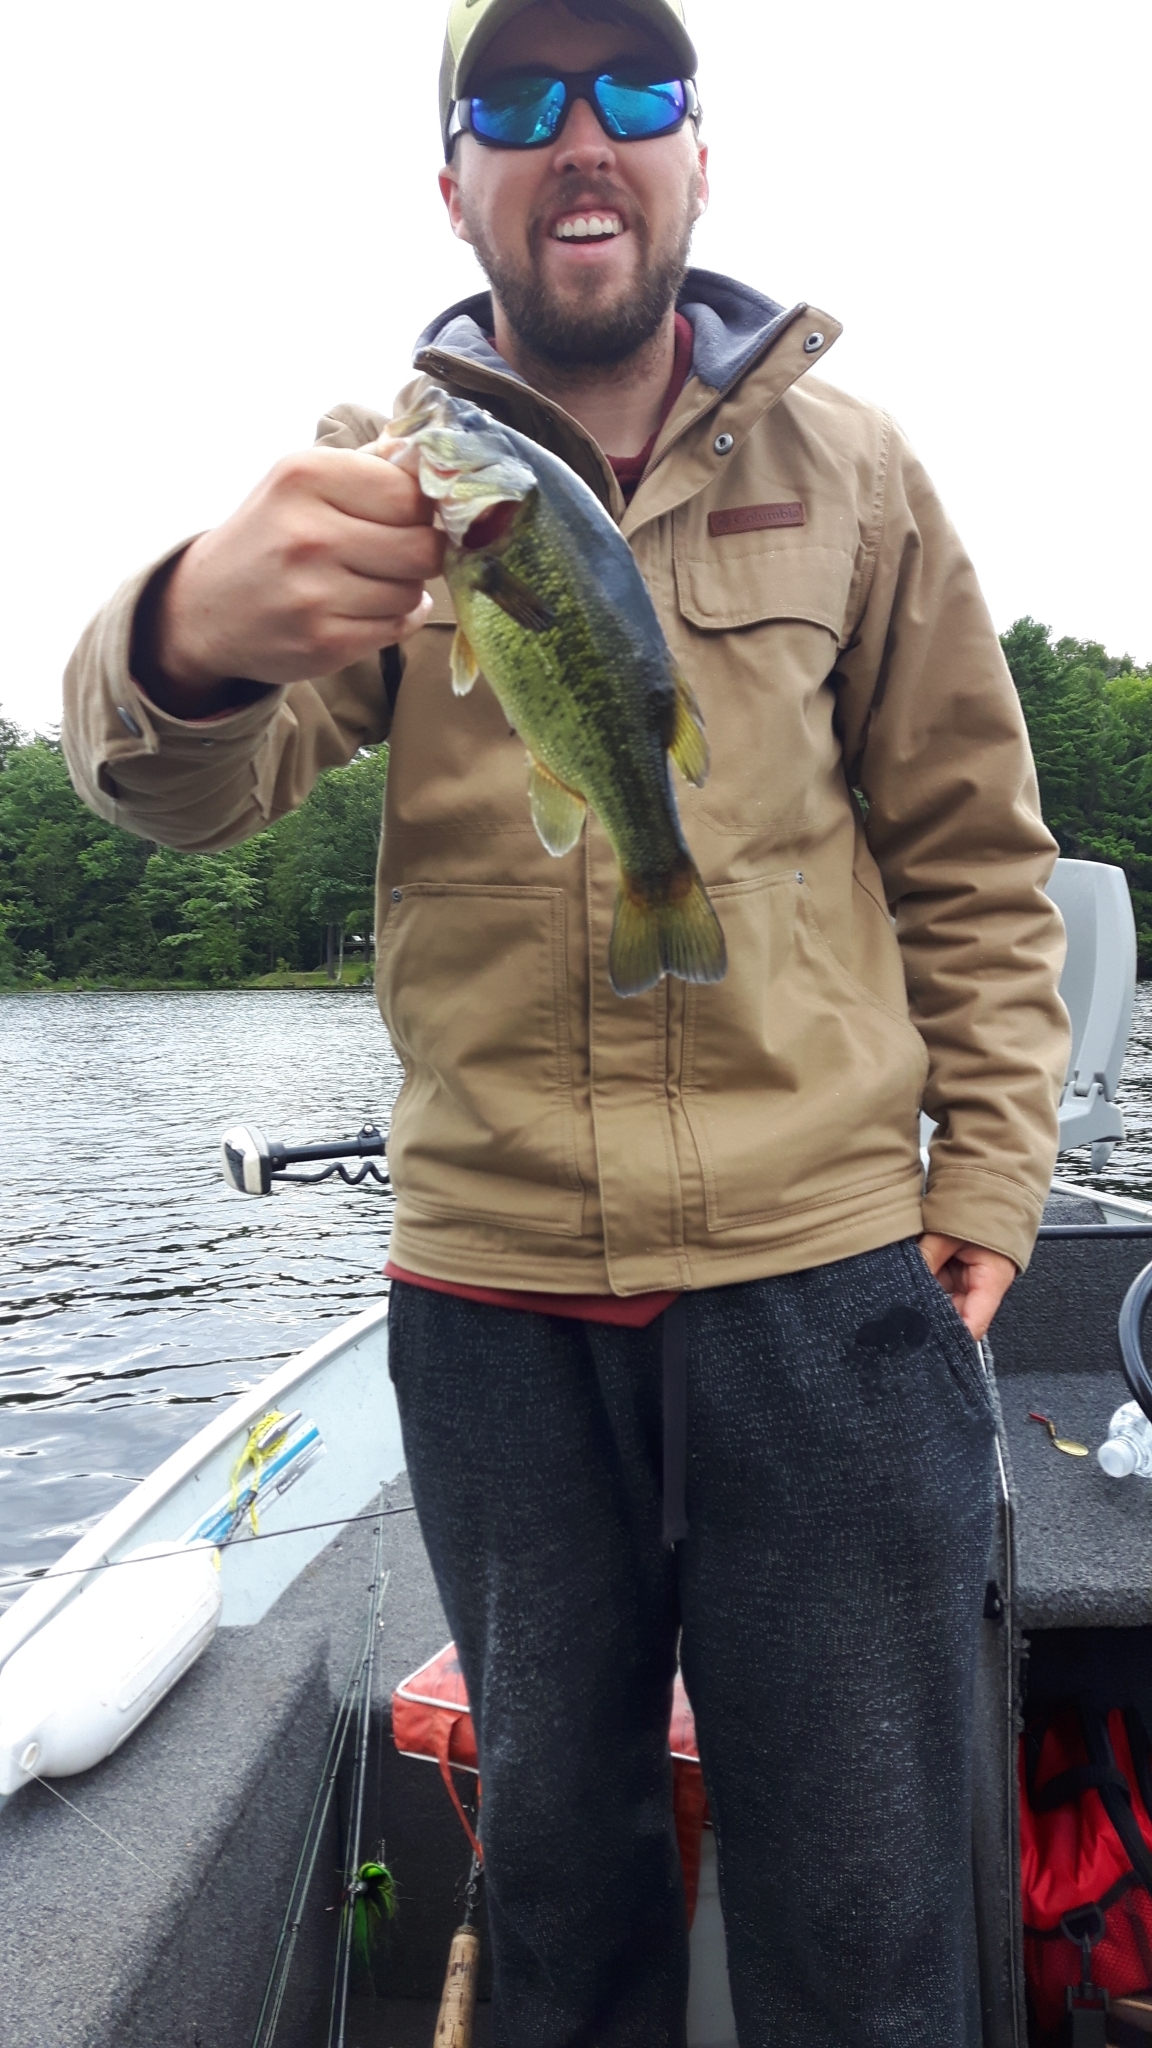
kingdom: Animalia
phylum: Chordata
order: Perciformes
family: Centrarchidae
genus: Micropterus
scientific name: Micropterus
